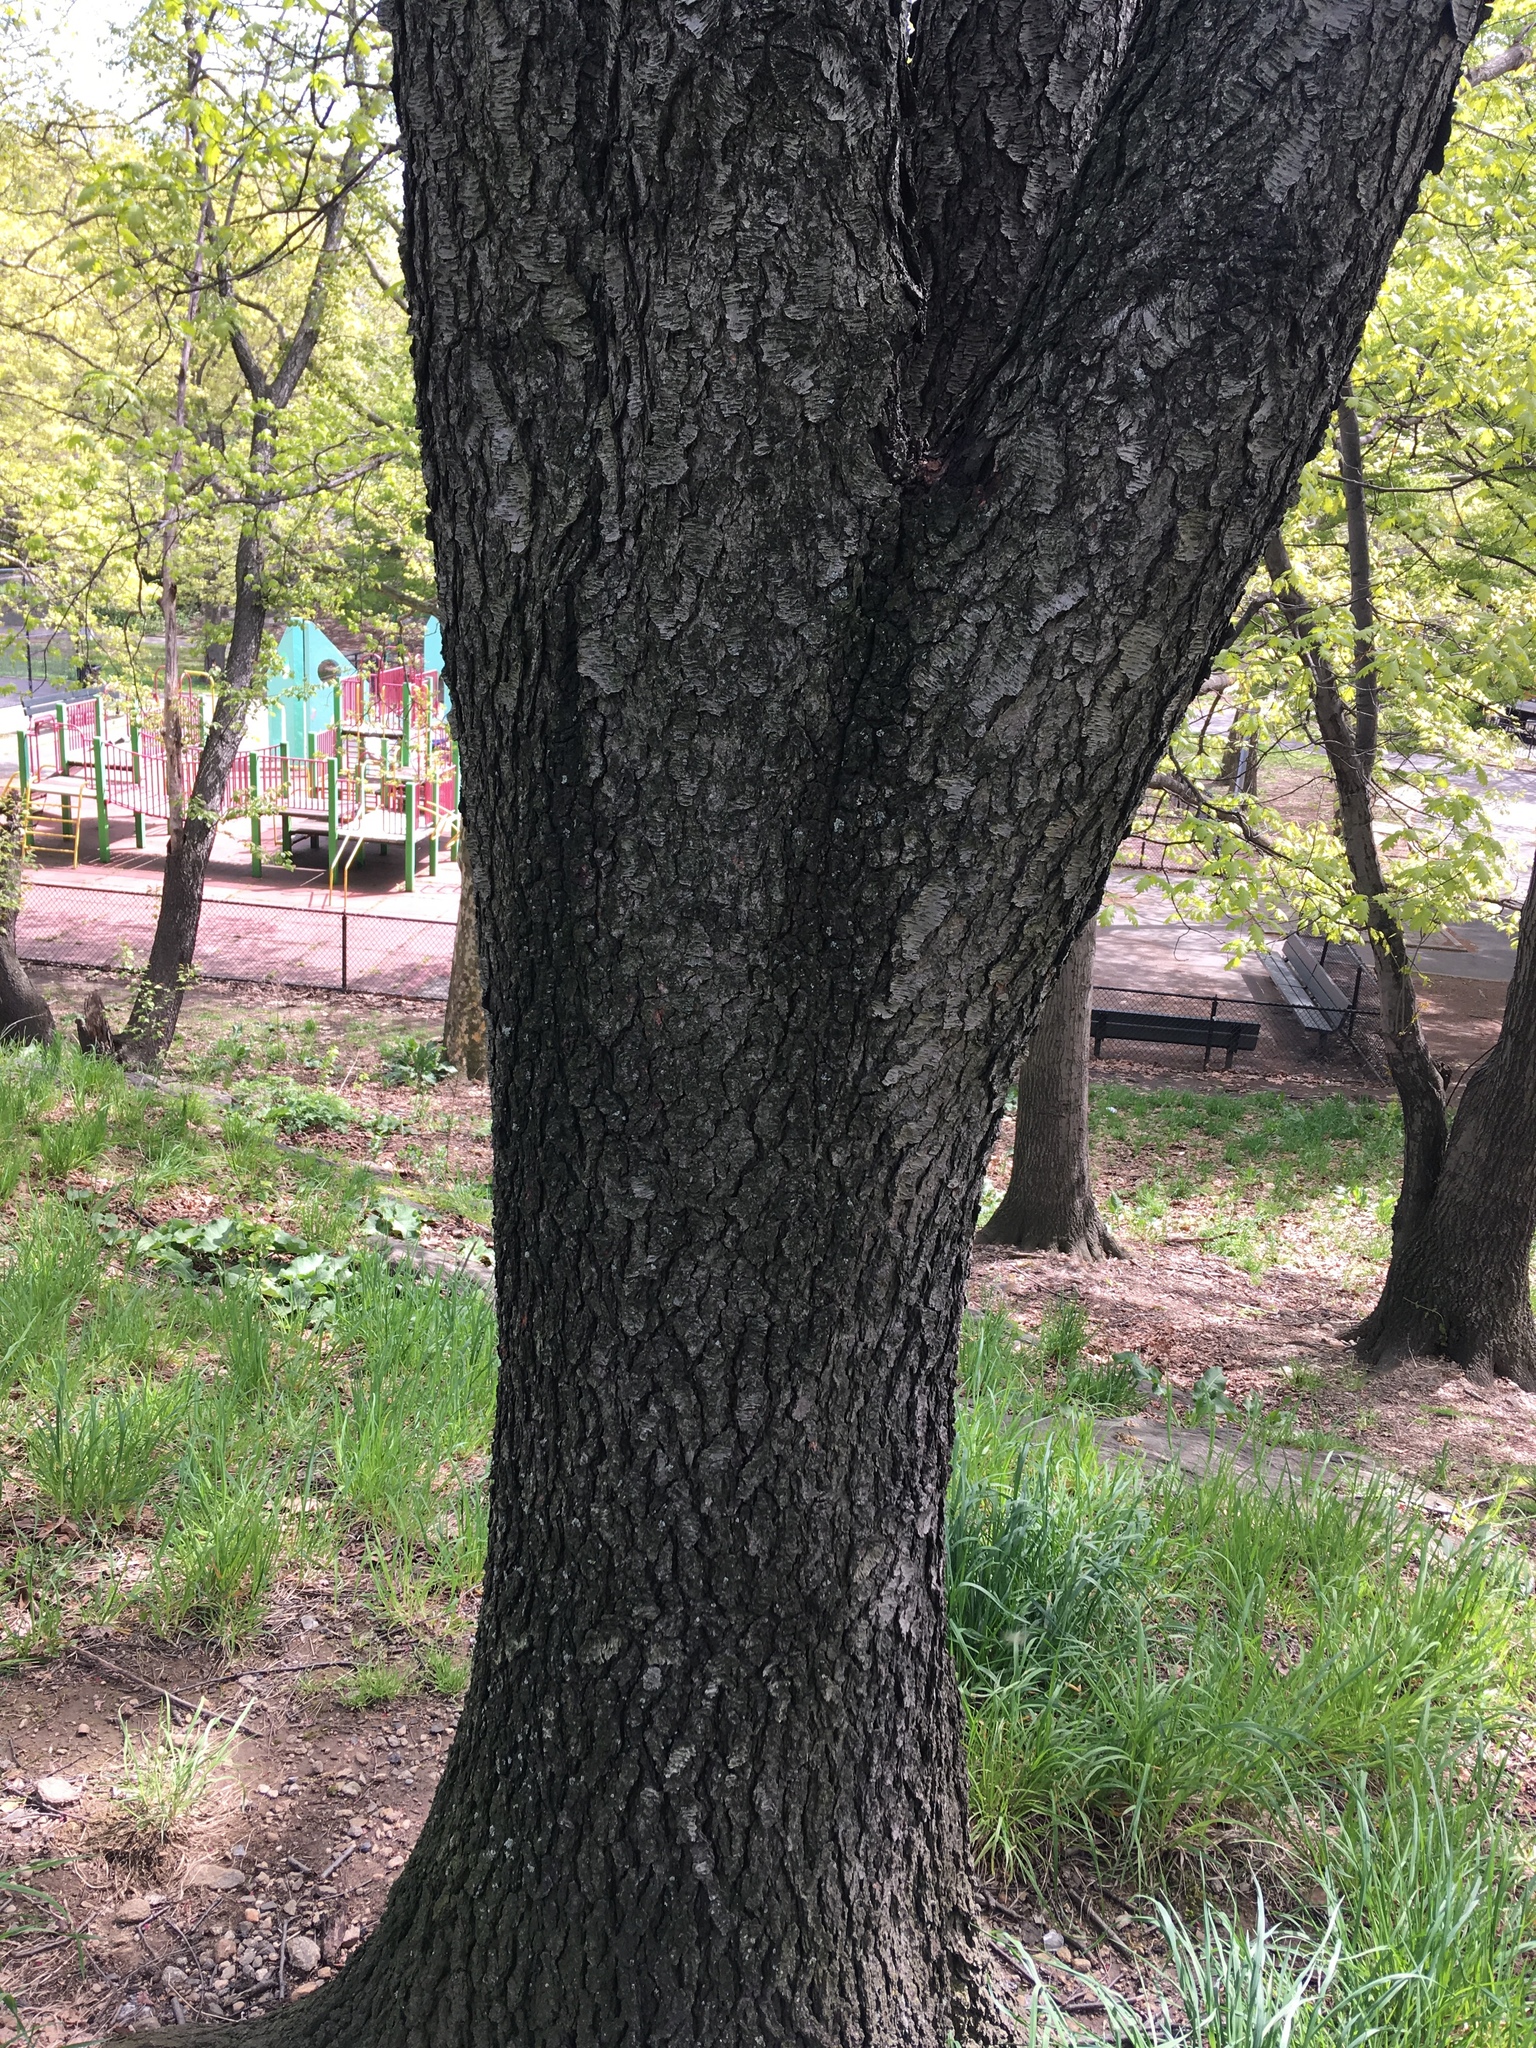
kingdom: Plantae
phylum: Tracheophyta
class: Magnoliopsida
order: Rosales
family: Rosaceae
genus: Prunus
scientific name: Prunus serotina
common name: Black cherry
